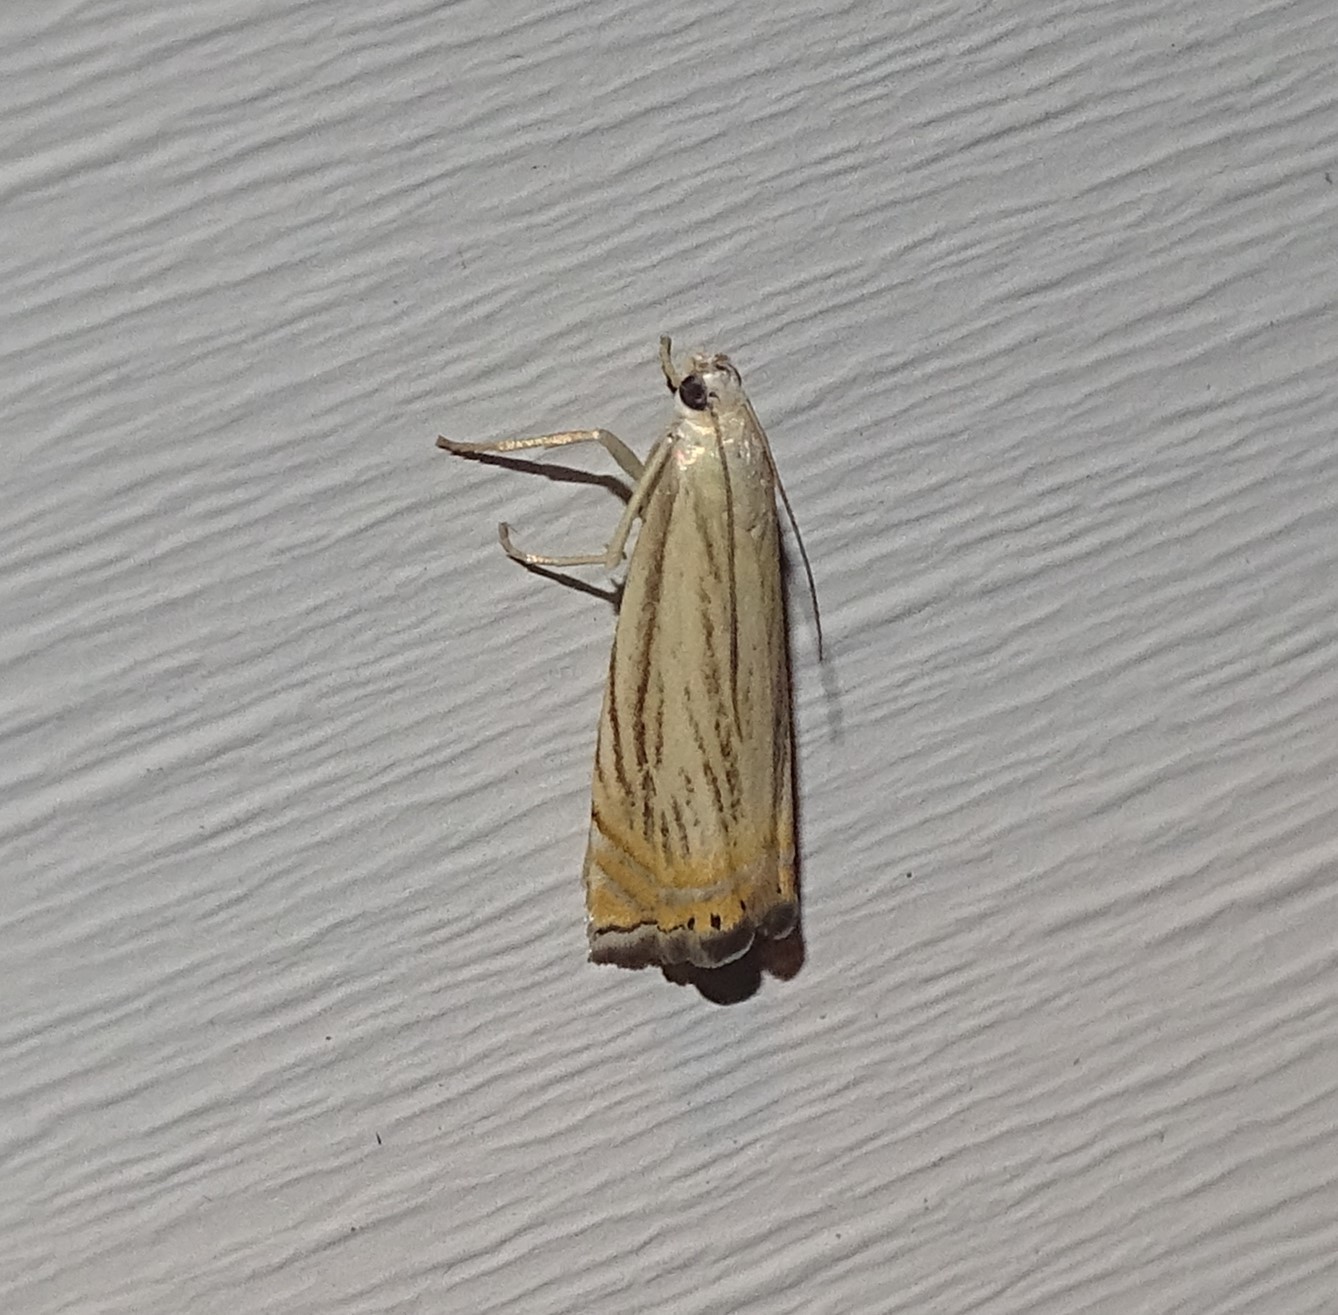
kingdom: Animalia
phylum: Arthropoda
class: Insecta
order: Lepidoptera
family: Crambidae
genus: Chrysoteuchia
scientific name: Chrysoteuchia topiarius
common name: Topiary grass-veneer
